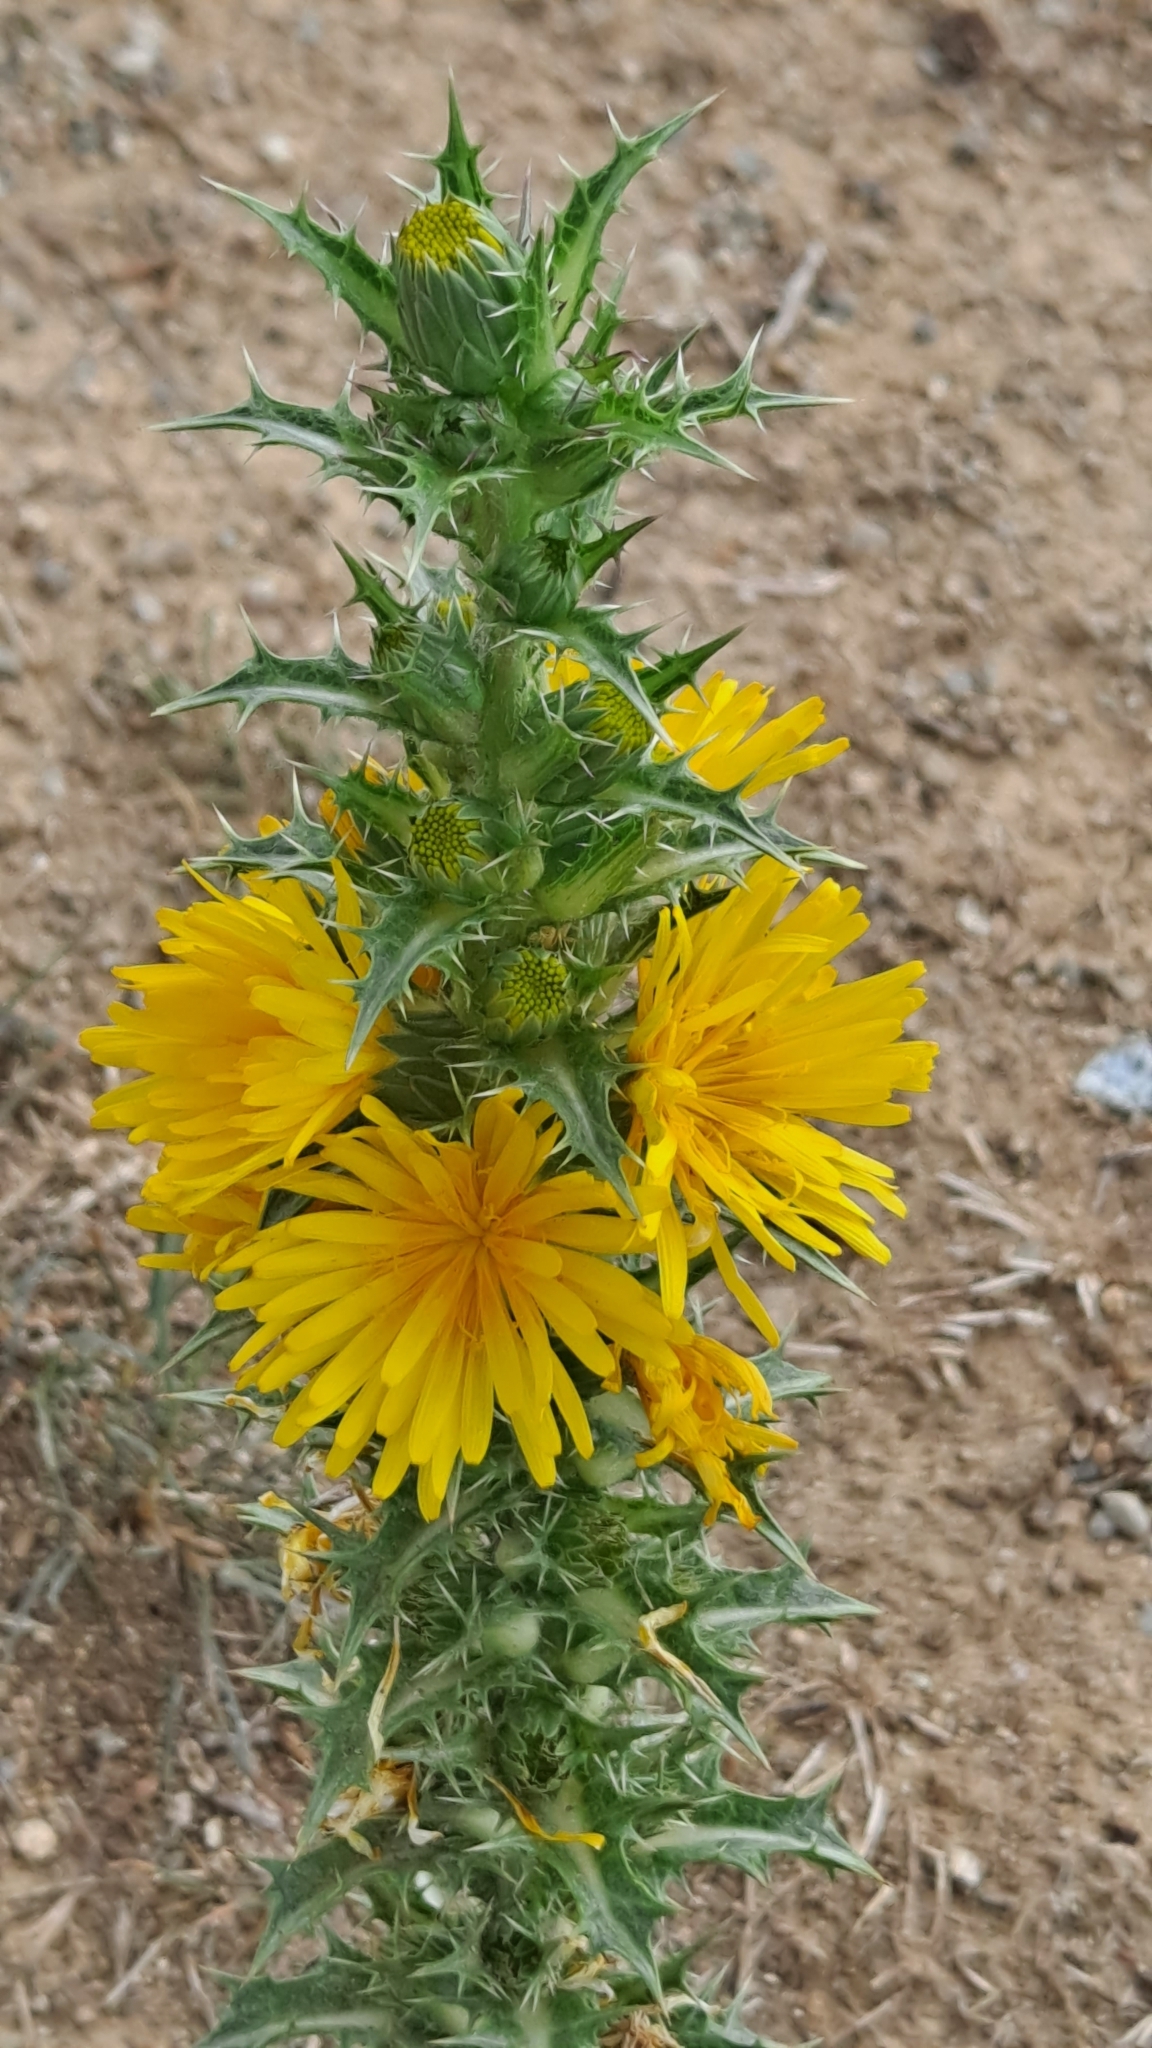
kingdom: Plantae
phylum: Tracheophyta
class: Magnoliopsida
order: Asterales
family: Asteraceae
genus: Scolymus
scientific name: Scolymus hispanicus
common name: Golden thistle
